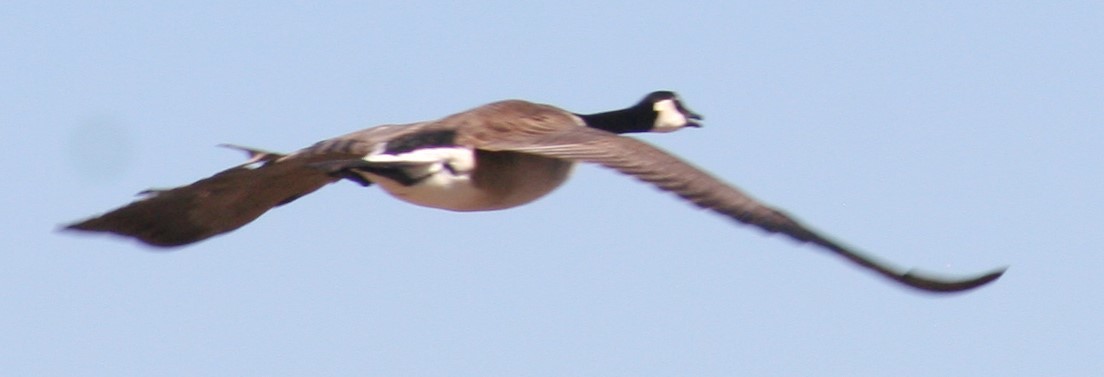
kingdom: Animalia
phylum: Chordata
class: Aves
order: Anseriformes
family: Anatidae
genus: Branta
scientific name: Branta canadensis
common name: Canada goose
